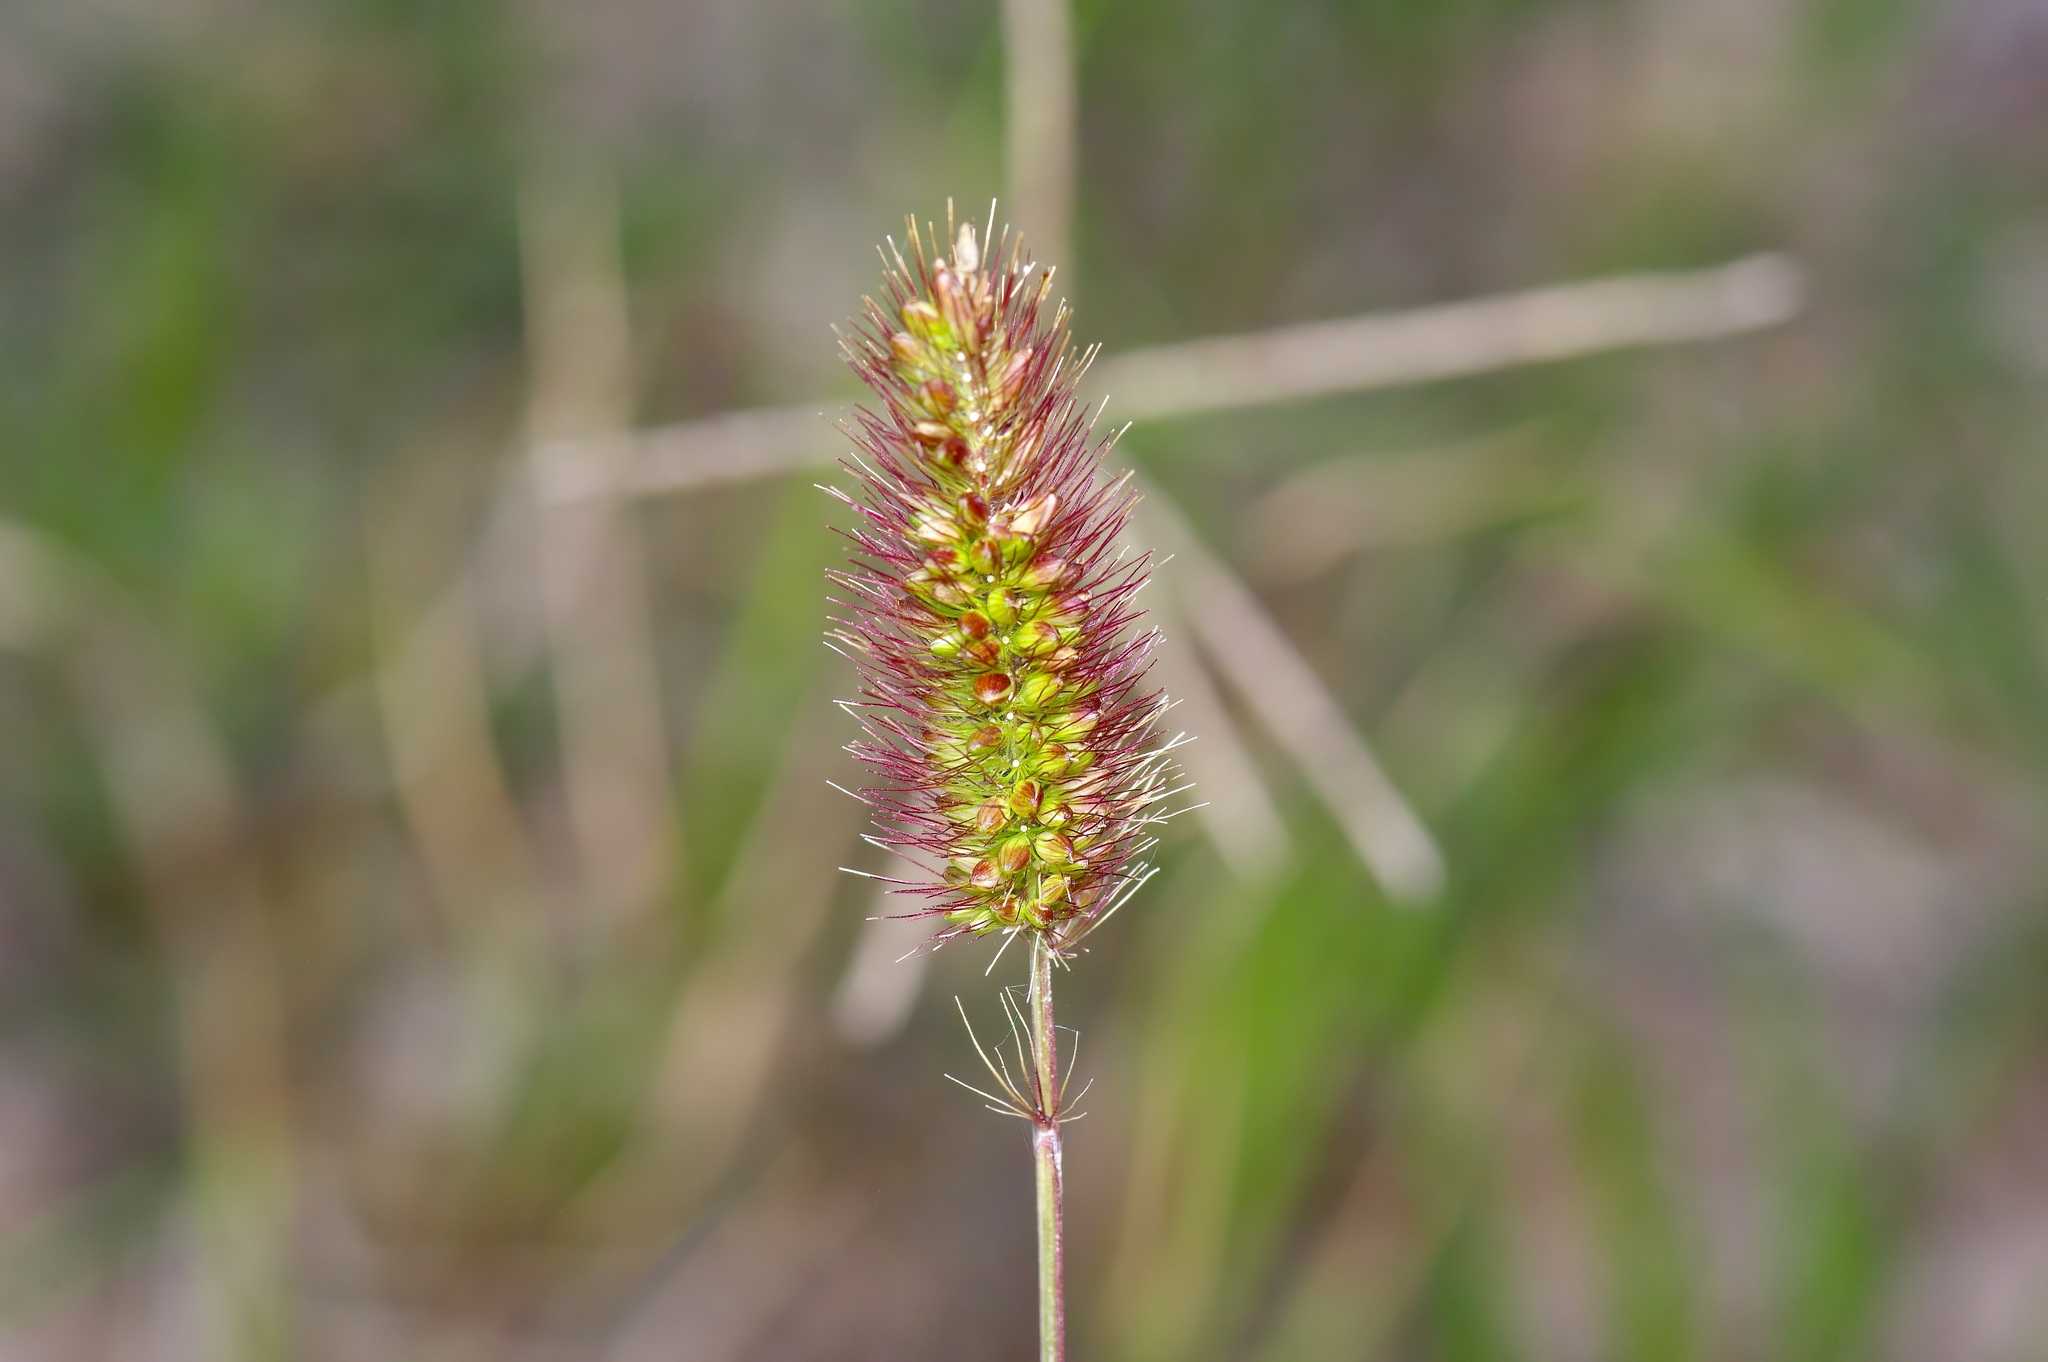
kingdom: Plantae
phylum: Tracheophyta
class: Liliopsida
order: Poales
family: Poaceae
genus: Setaria
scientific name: Setaria parviflora
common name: Knotroot bristle-grass
